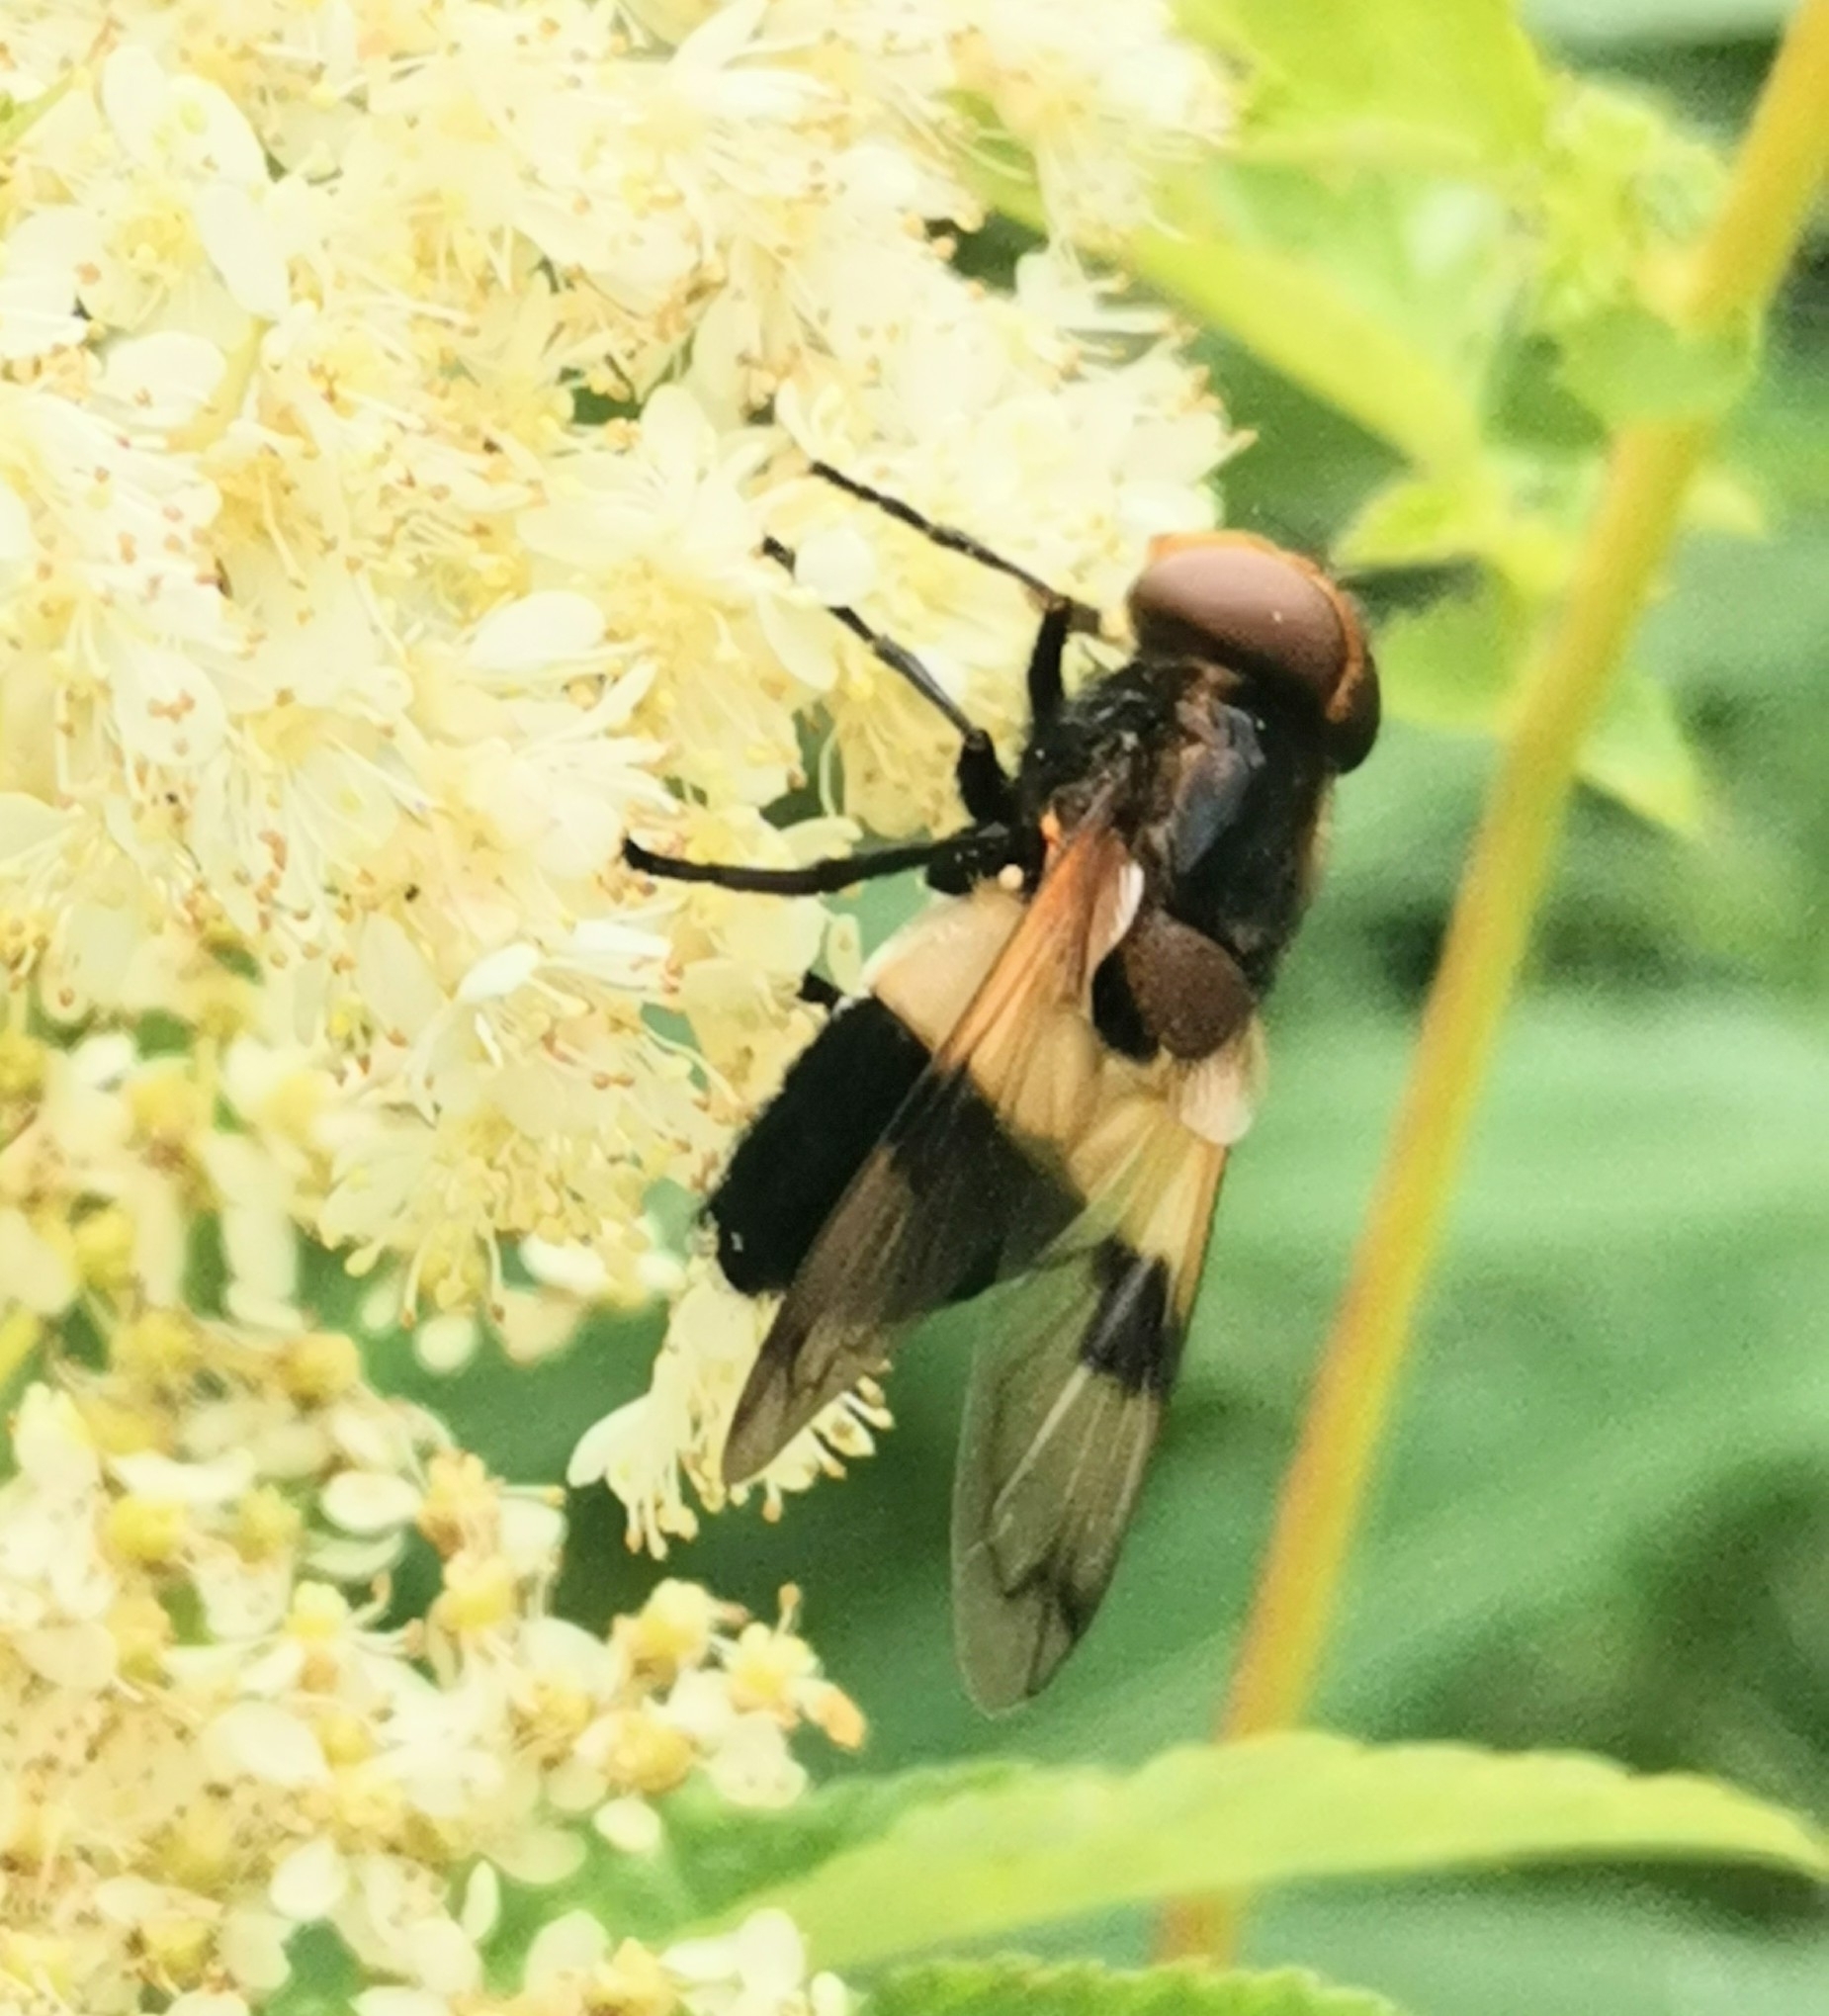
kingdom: Animalia
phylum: Arthropoda
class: Insecta
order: Diptera
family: Syrphidae
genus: Volucella
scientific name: Volucella pellucens
